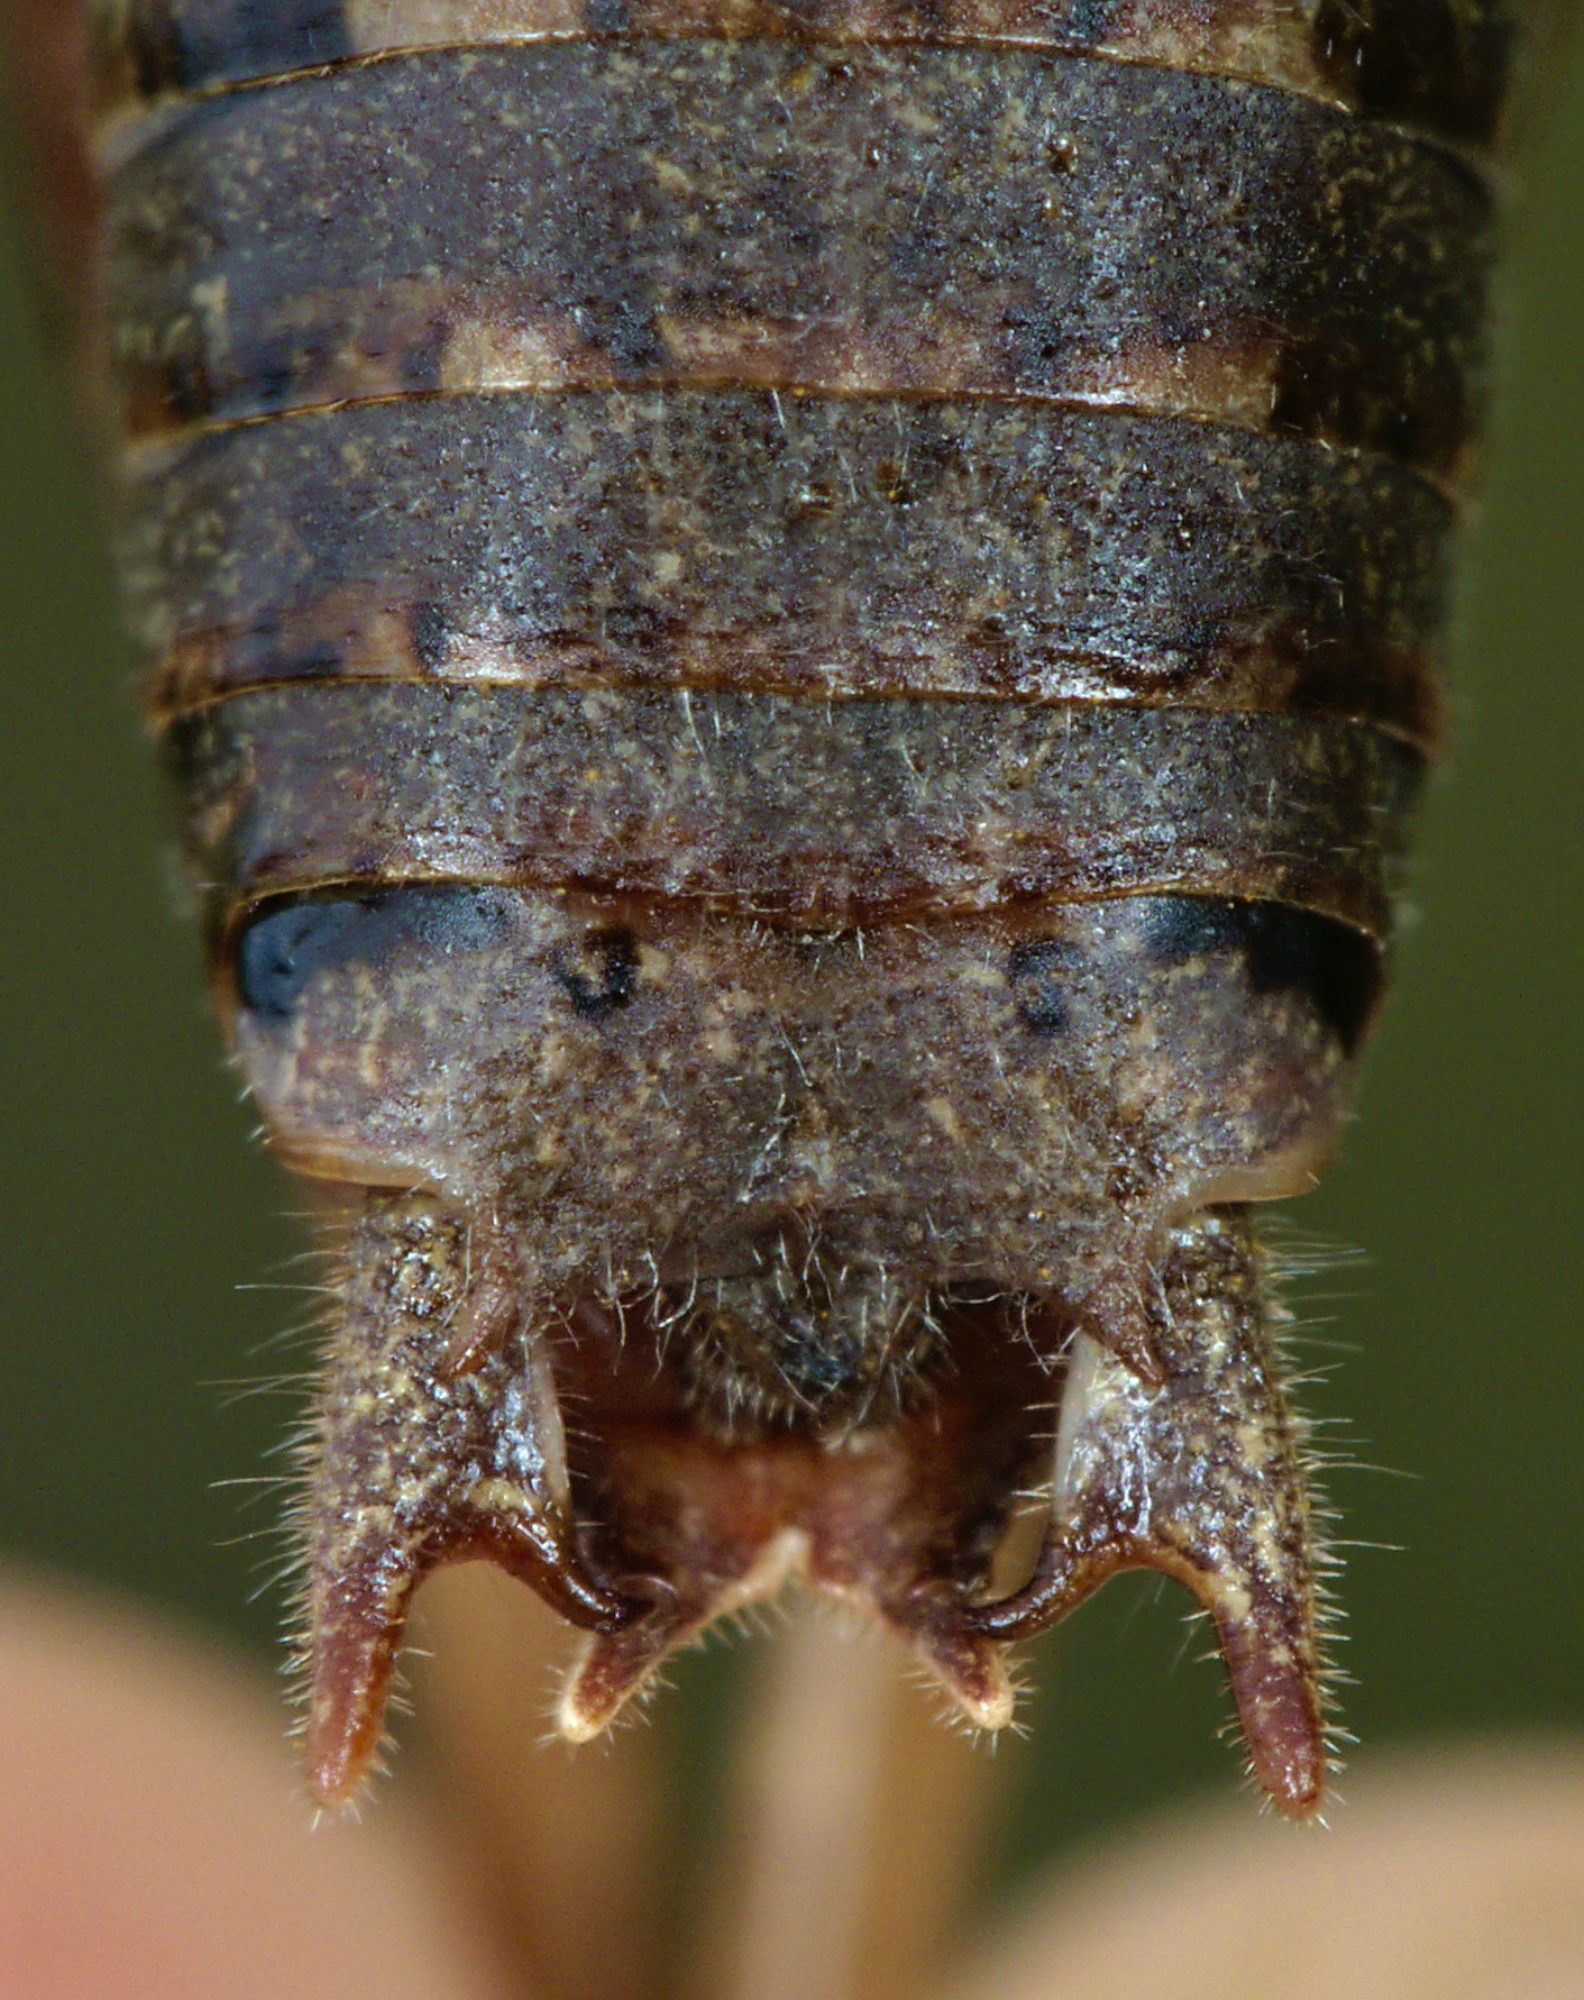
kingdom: Animalia
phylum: Arthropoda
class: Insecta
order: Orthoptera
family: Tettigoniidae
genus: Metrioptera
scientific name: Metrioptera saussuriana
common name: Purple meadow bush-cricket
